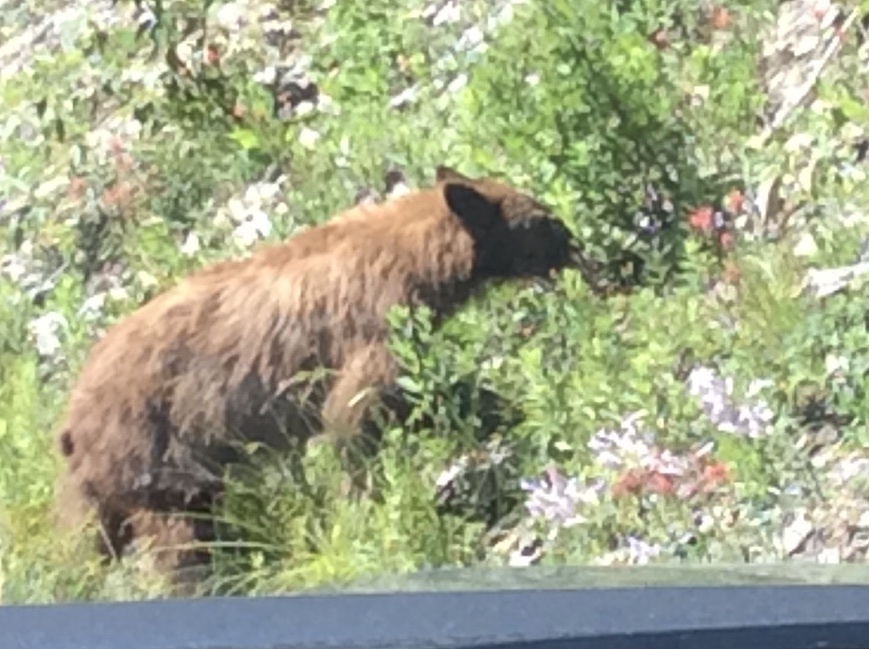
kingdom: Animalia
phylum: Chordata
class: Mammalia
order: Carnivora
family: Ursidae
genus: Ursus
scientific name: Ursus americanus
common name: American black bear
